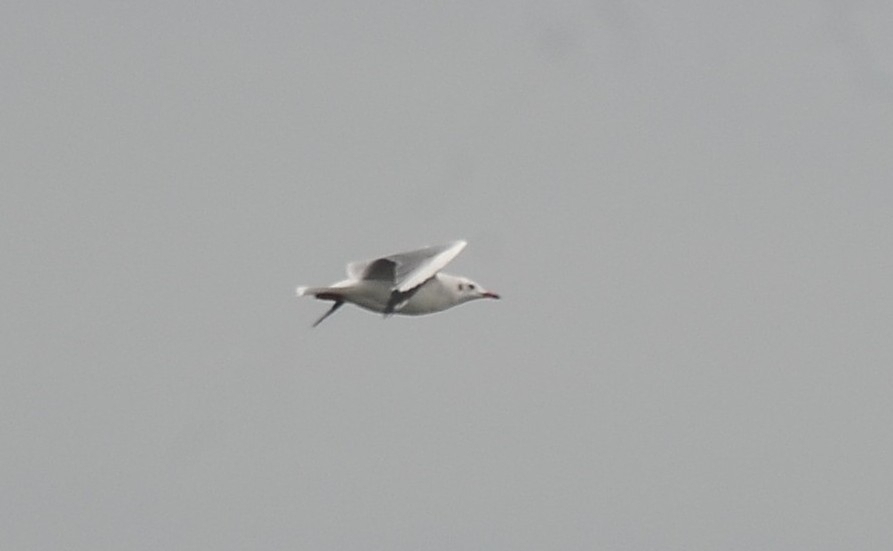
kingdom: Animalia
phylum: Chordata
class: Aves
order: Charadriiformes
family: Laridae
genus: Chroicocephalus
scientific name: Chroicocephalus brunnicephalus
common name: Brown-headed gull
